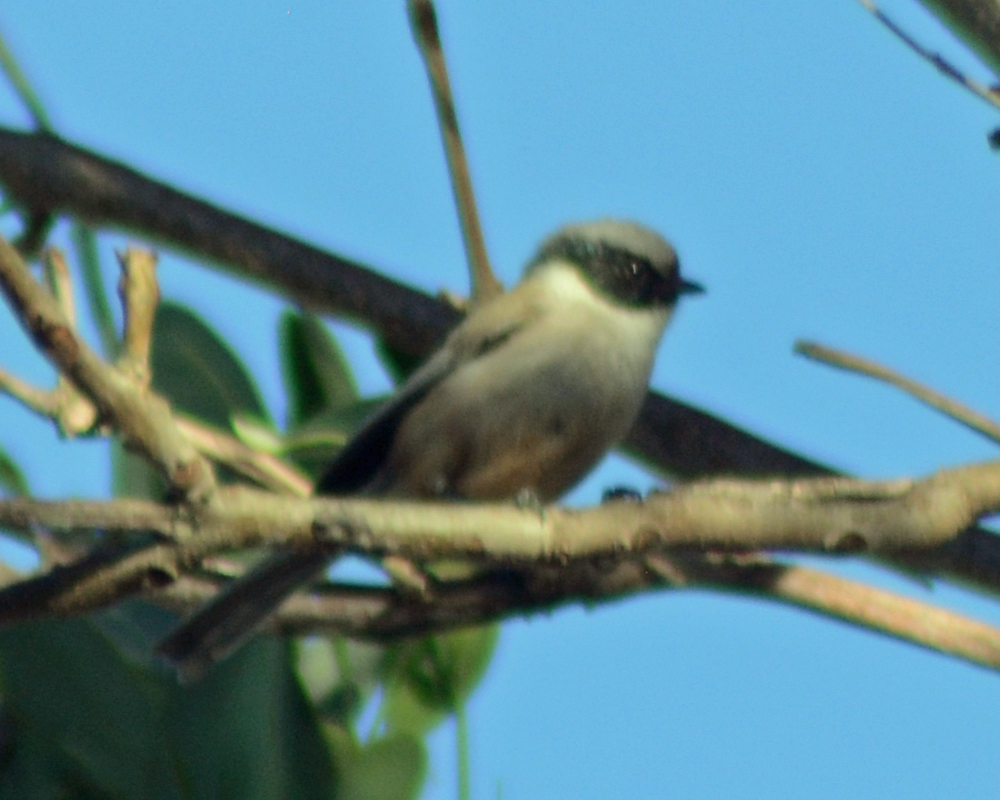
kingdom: Animalia
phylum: Chordata
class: Aves
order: Passeriformes
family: Aegithalidae
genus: Psaltriparus
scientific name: Psaltriparus minimus
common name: American bushtit
